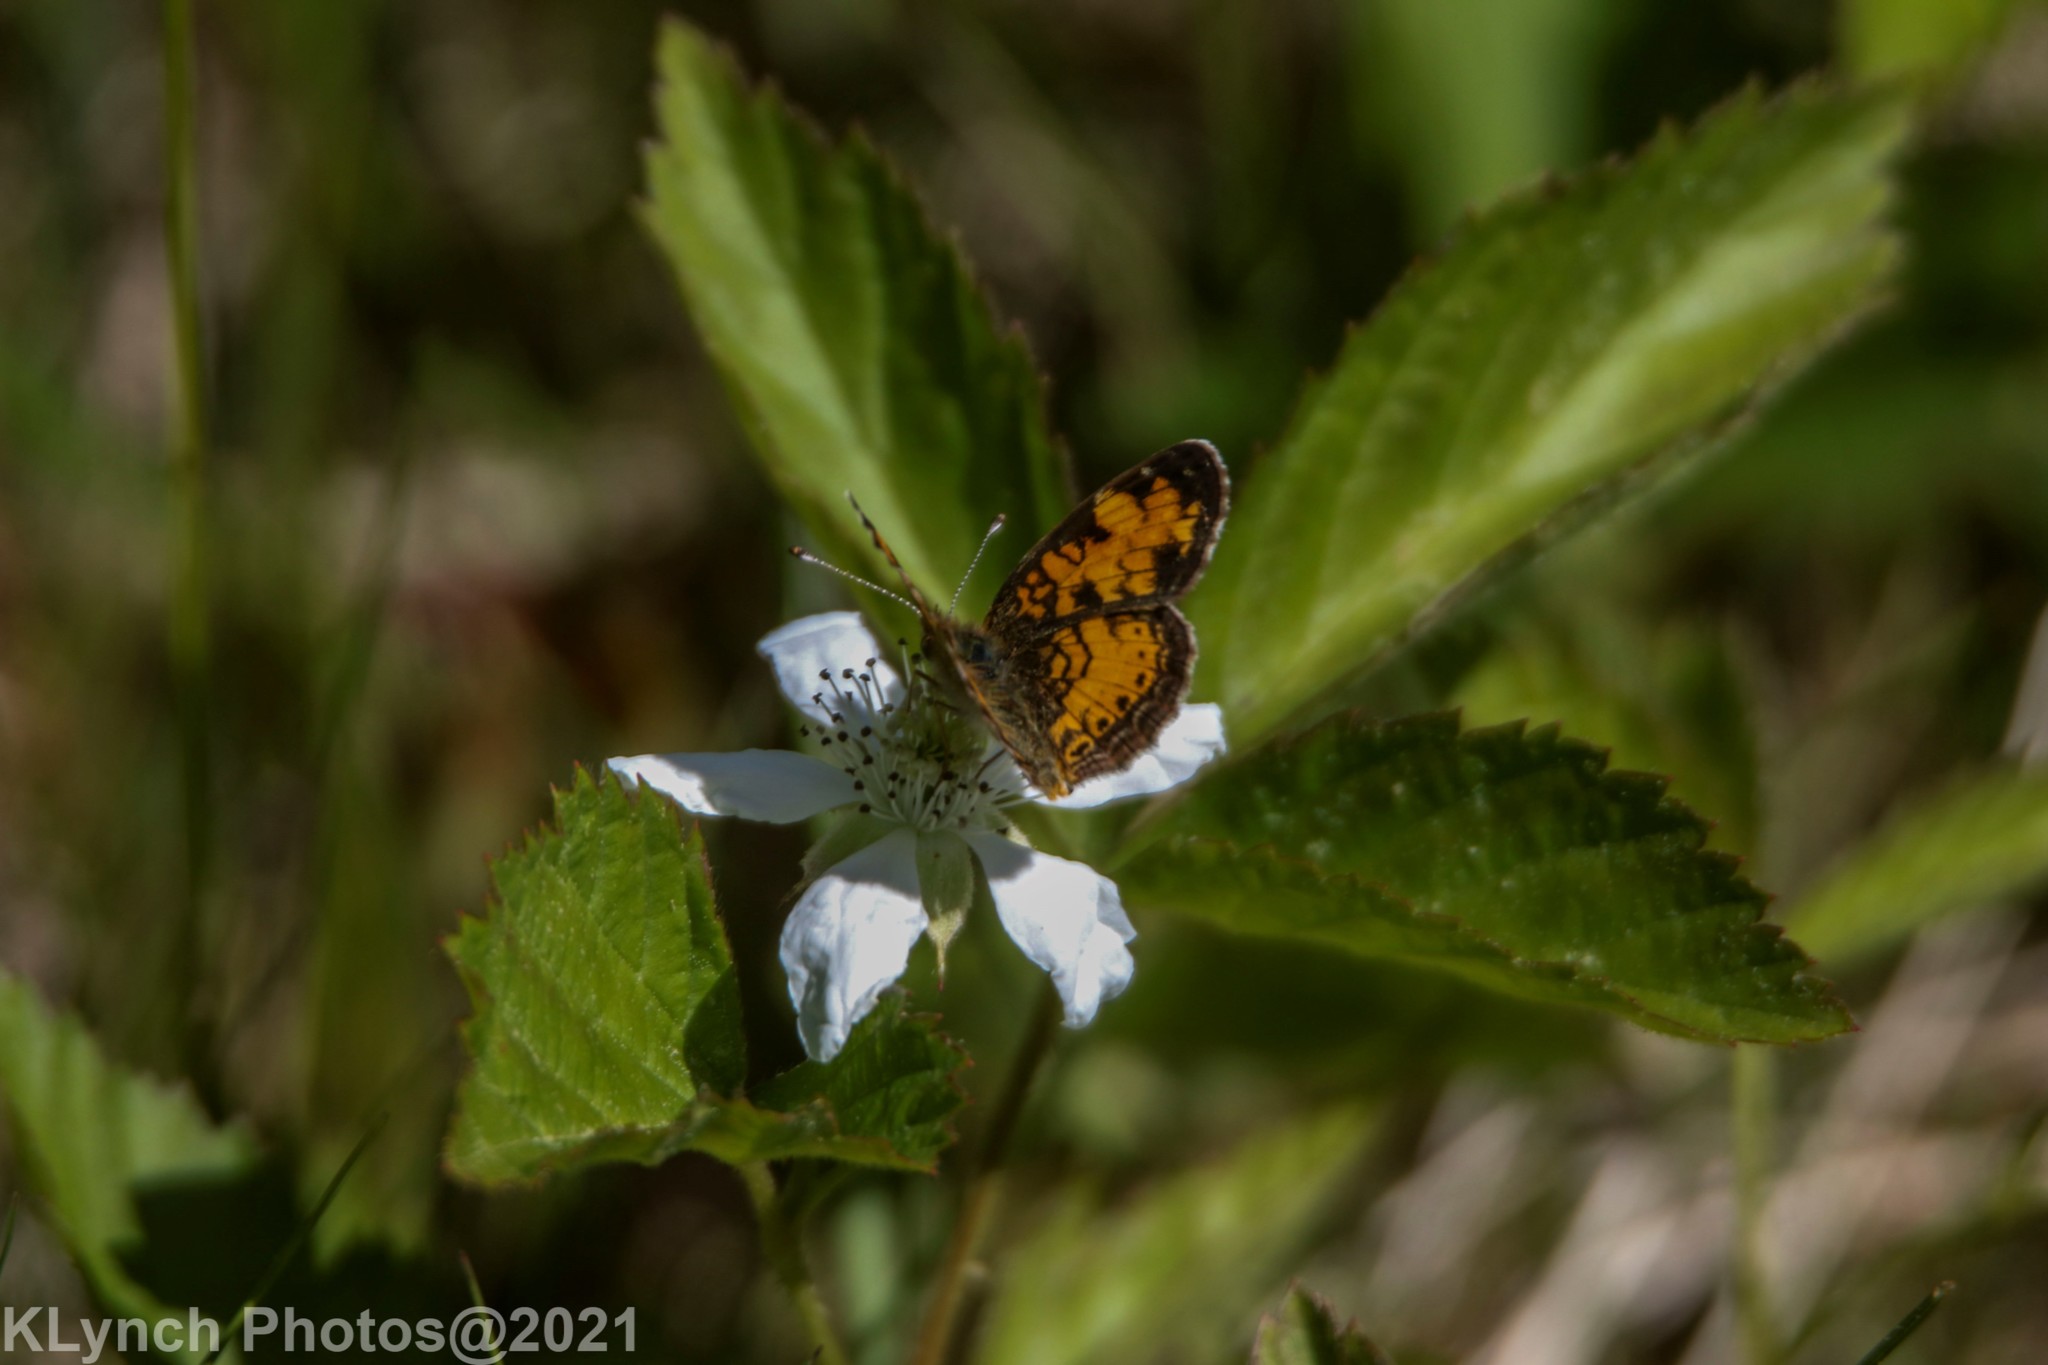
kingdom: Animalia
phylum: Arthropoda
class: Insecta
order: Lepidoptera
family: Nymphalidae
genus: Phyciodes
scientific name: Phyciodes tharos
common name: Pearl crescent
